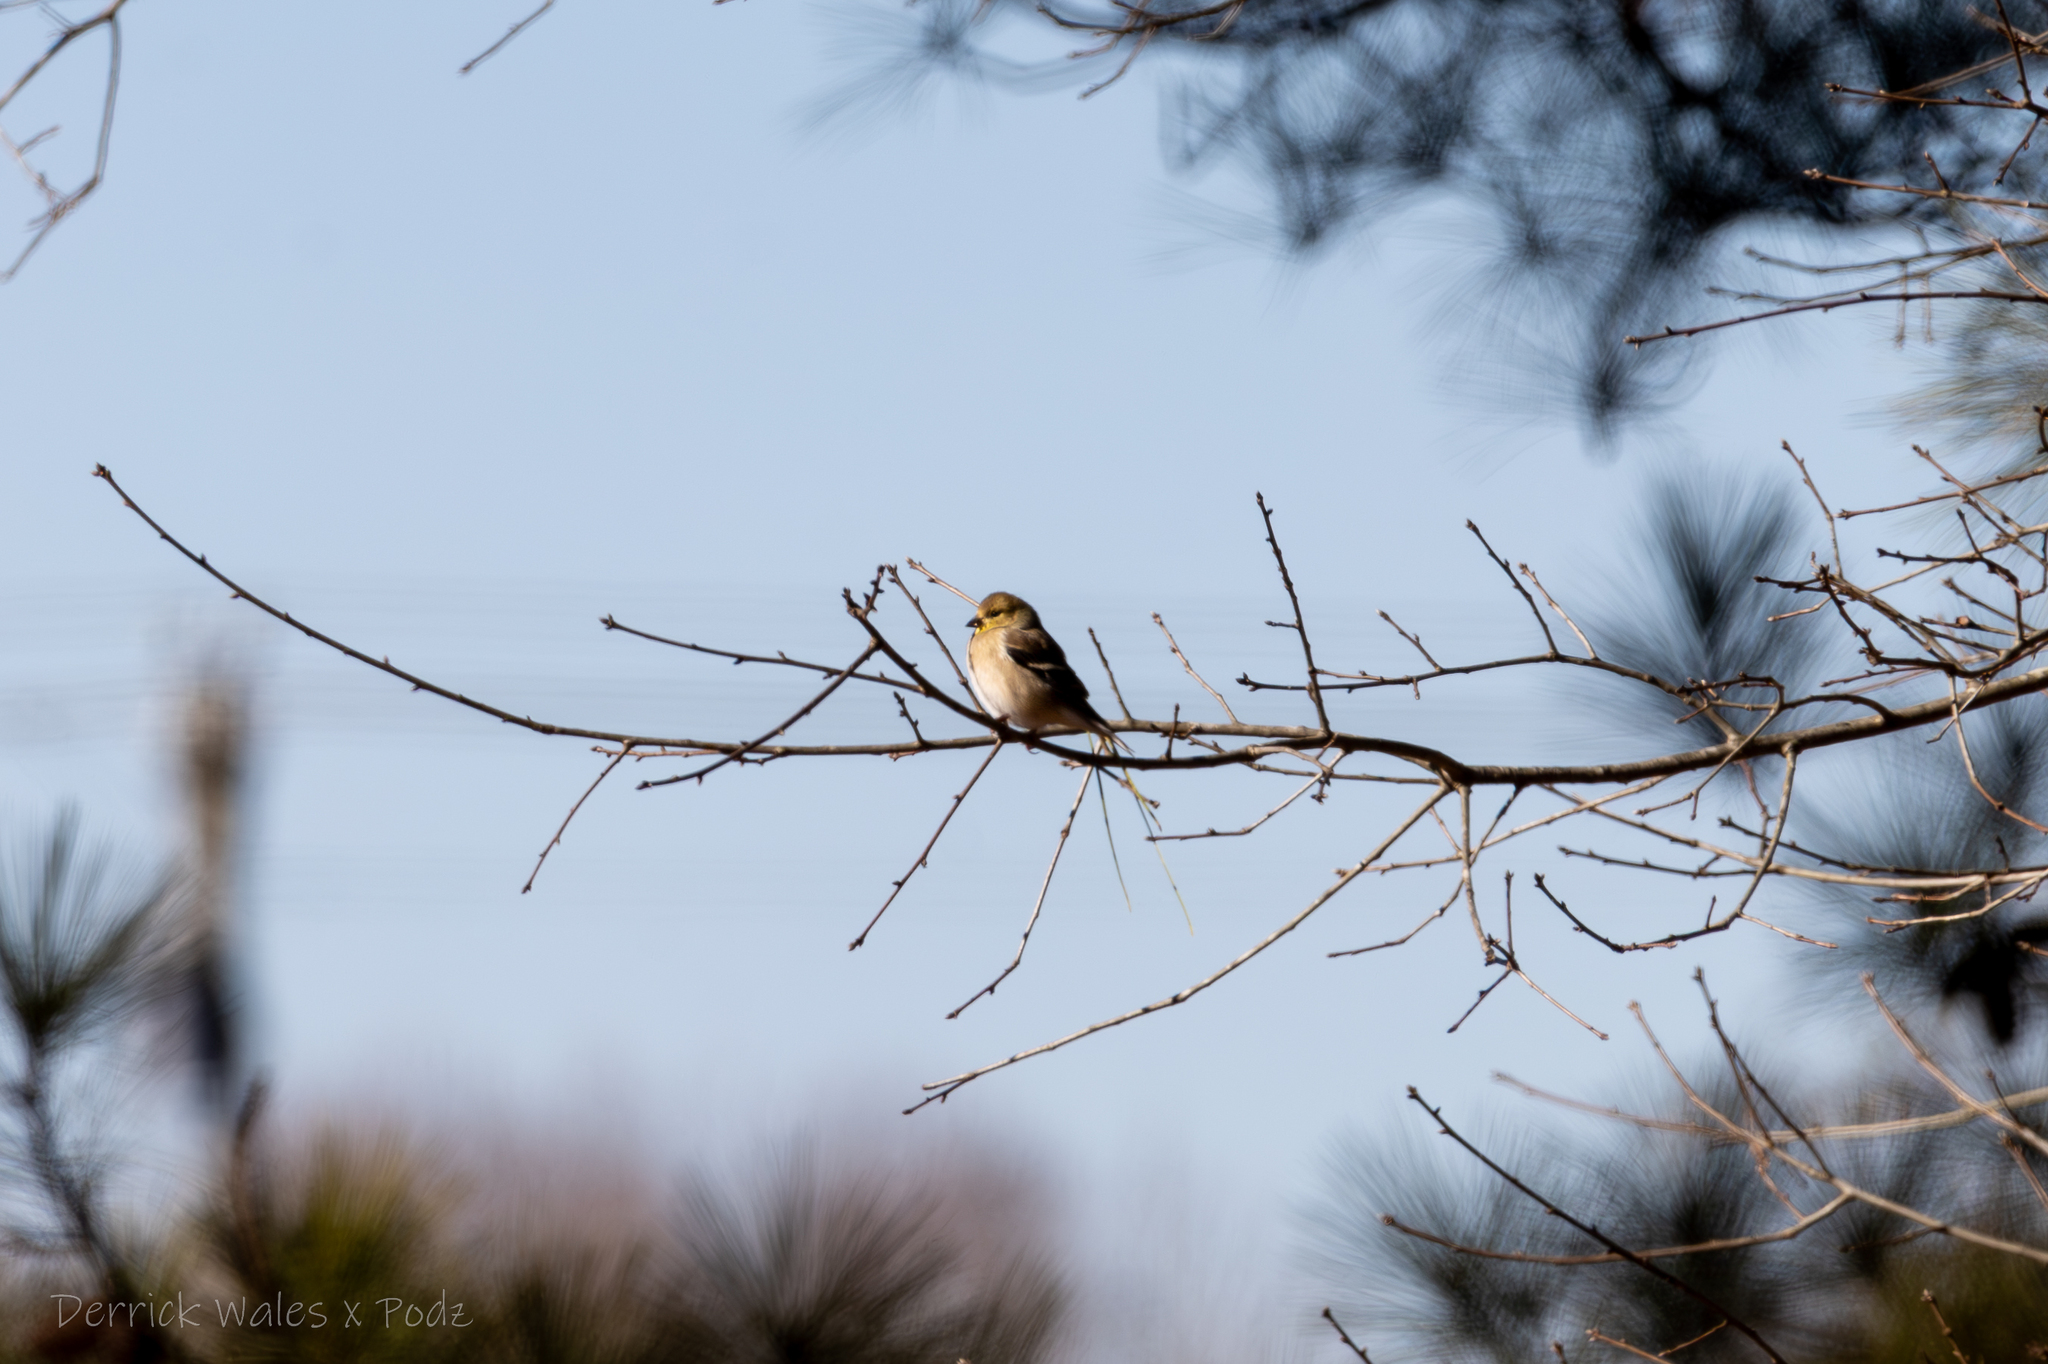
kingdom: Animalia
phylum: Chordata
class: Aves
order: Passeriformes
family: Fringillidae
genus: Spinus
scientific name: Spinus tristis
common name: American goldfinch
